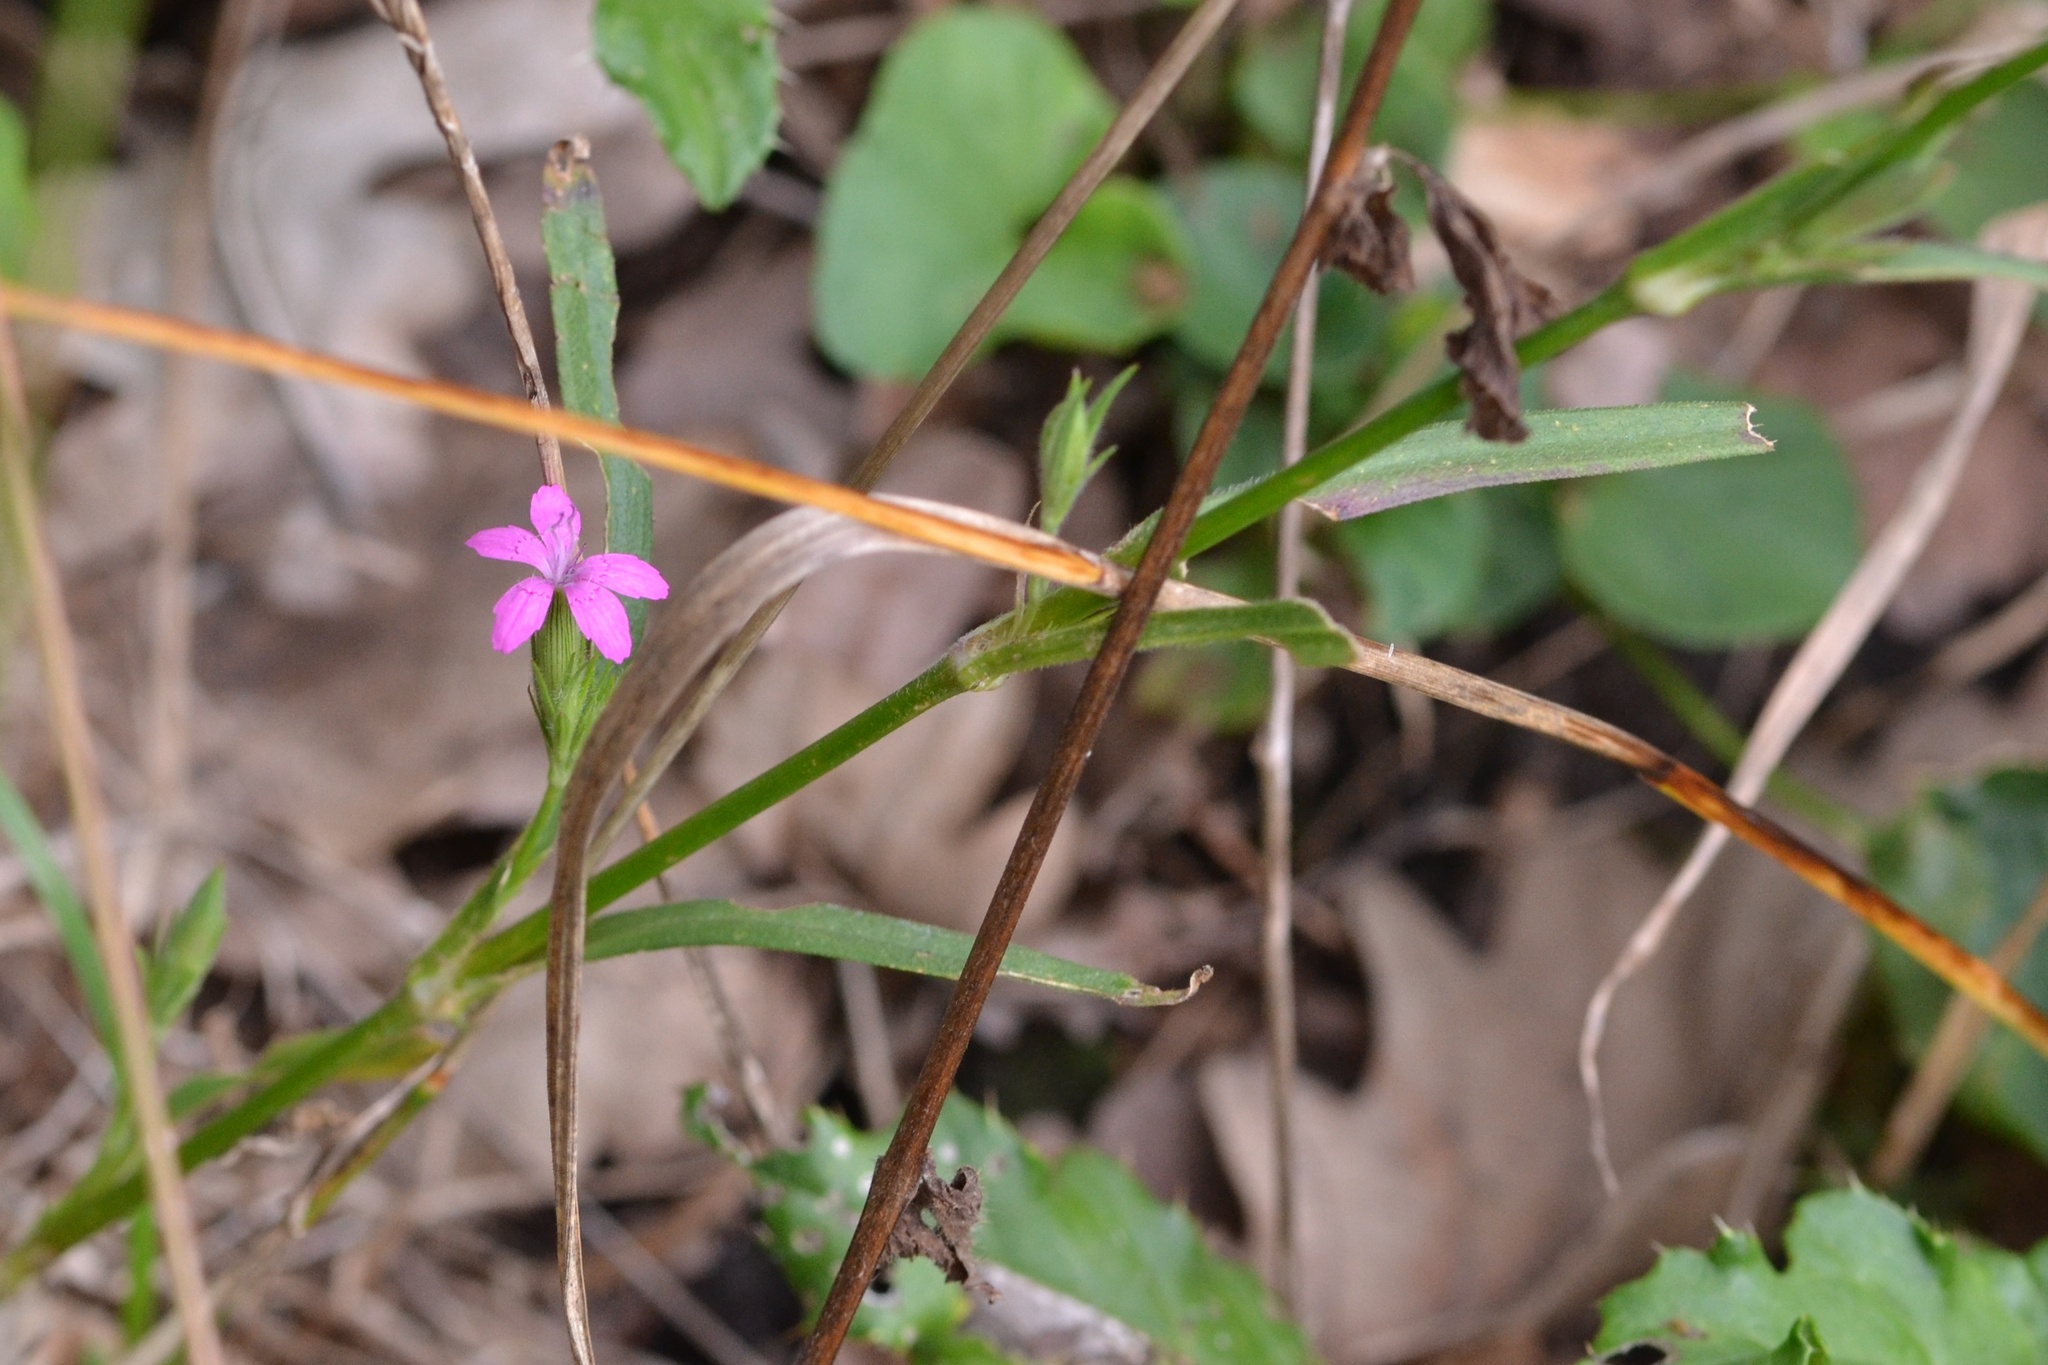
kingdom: Plantae
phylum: Tracheophyta
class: Magnoliopsida
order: Caryophyllales
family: Caryophyllaceae
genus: Dianthus
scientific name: Dianthus armeria
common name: Deptford pink
